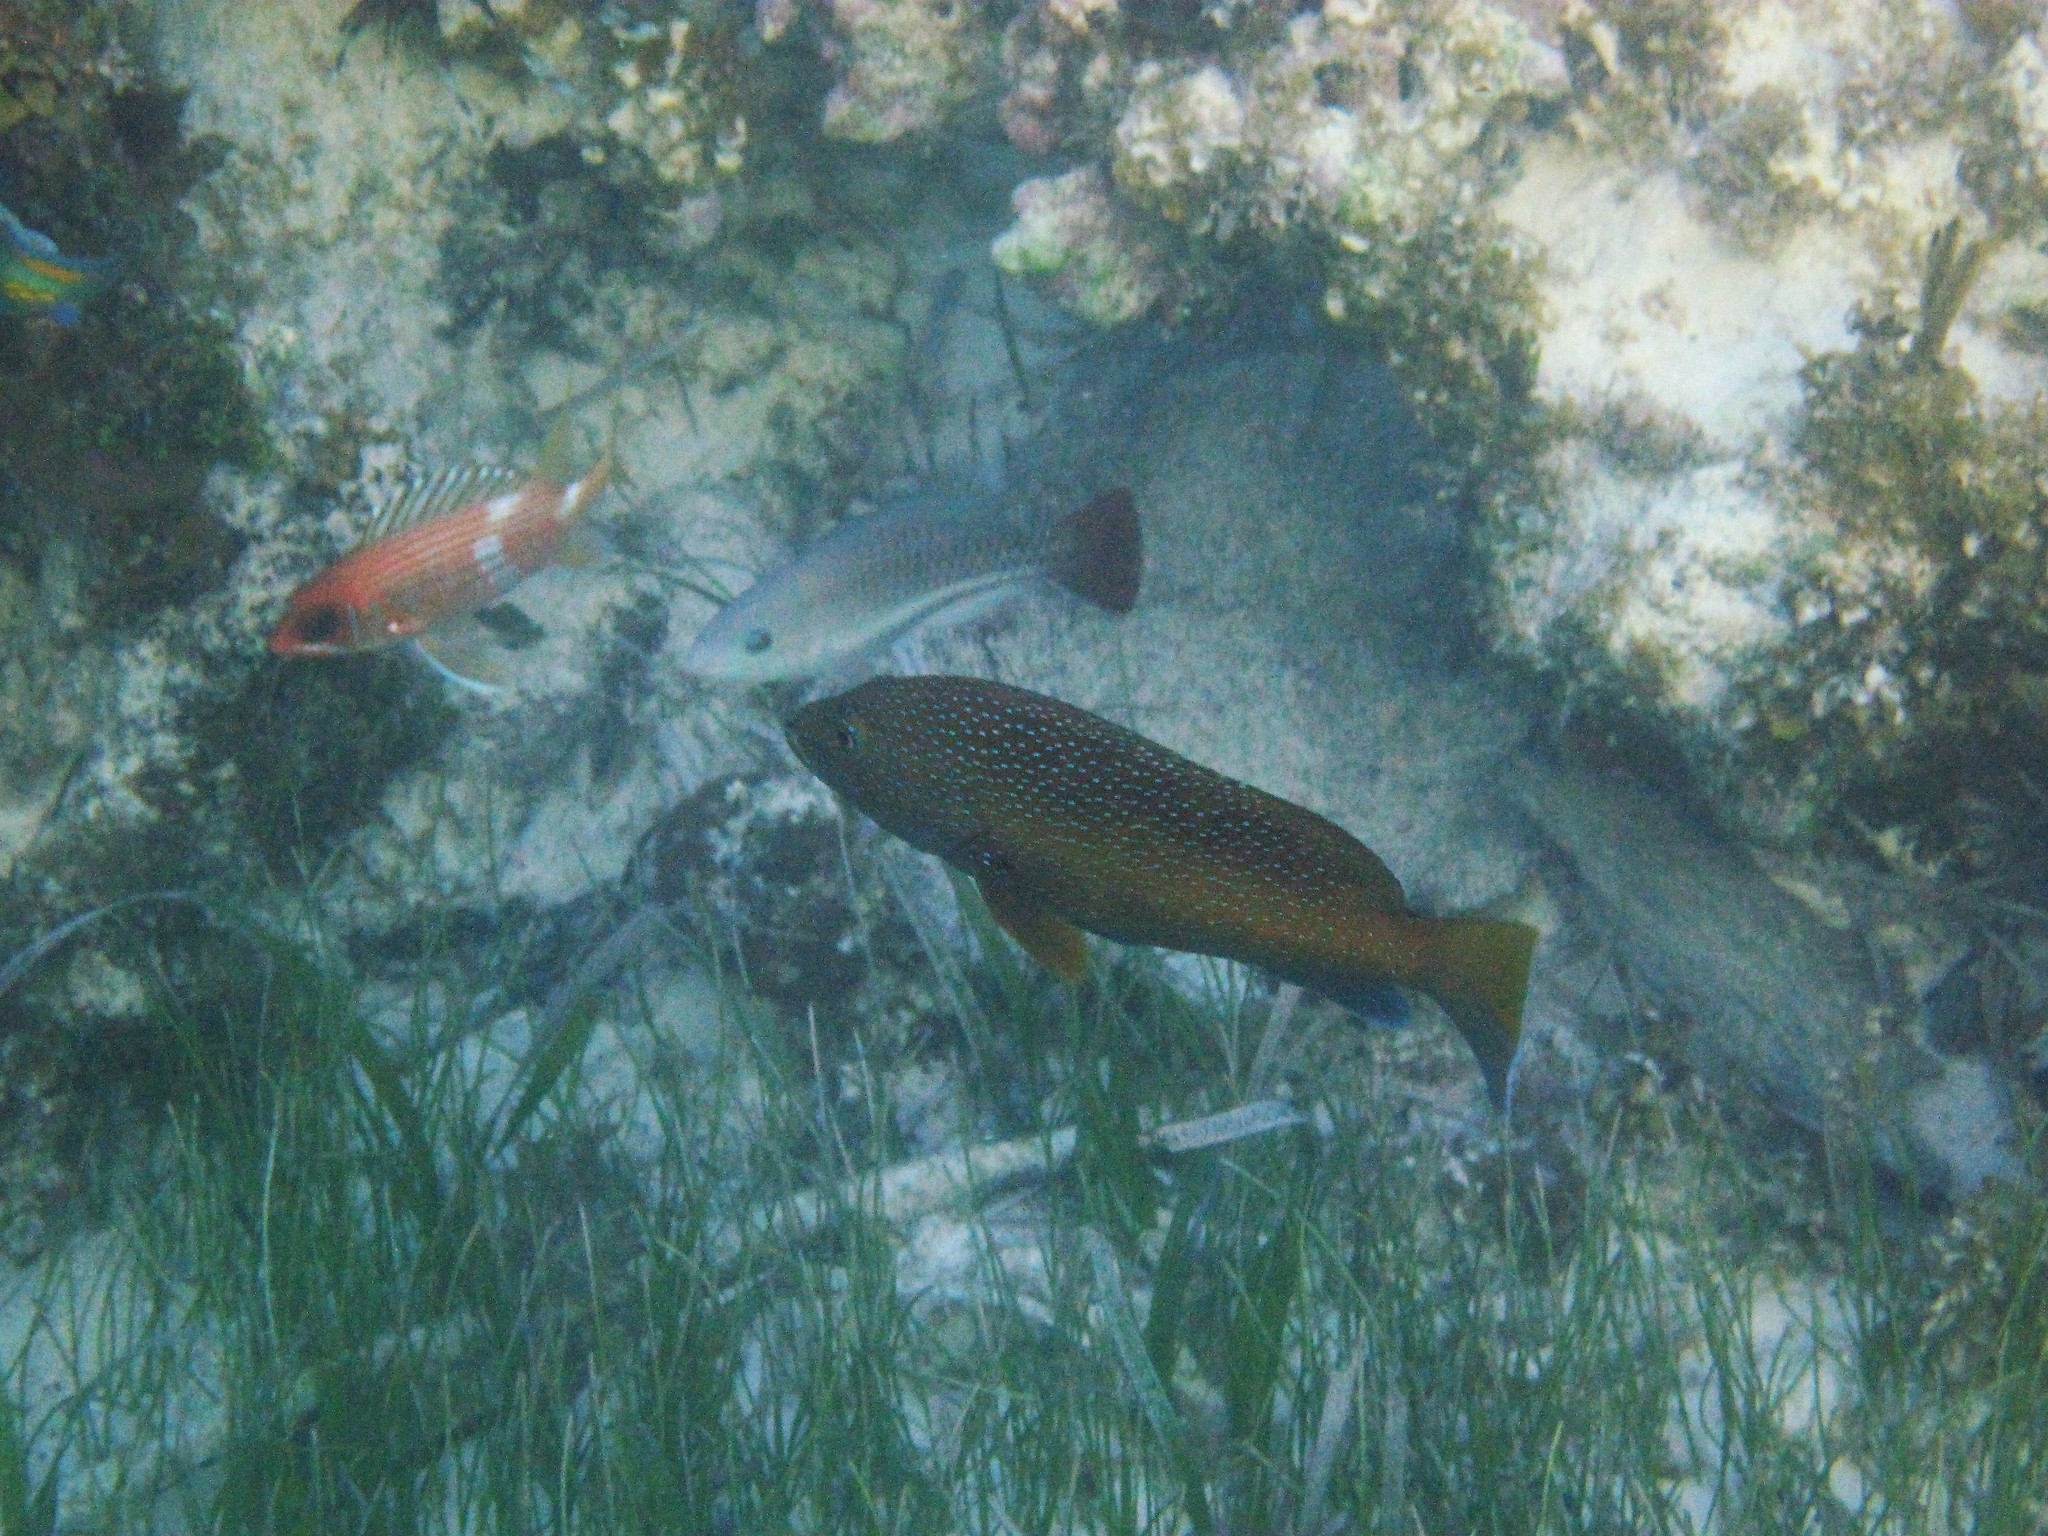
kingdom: Animalia
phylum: Chordata
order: Perciformes
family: Serranidae
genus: Cephalopholis
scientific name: Cephalopholis fulva
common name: Butterfish
